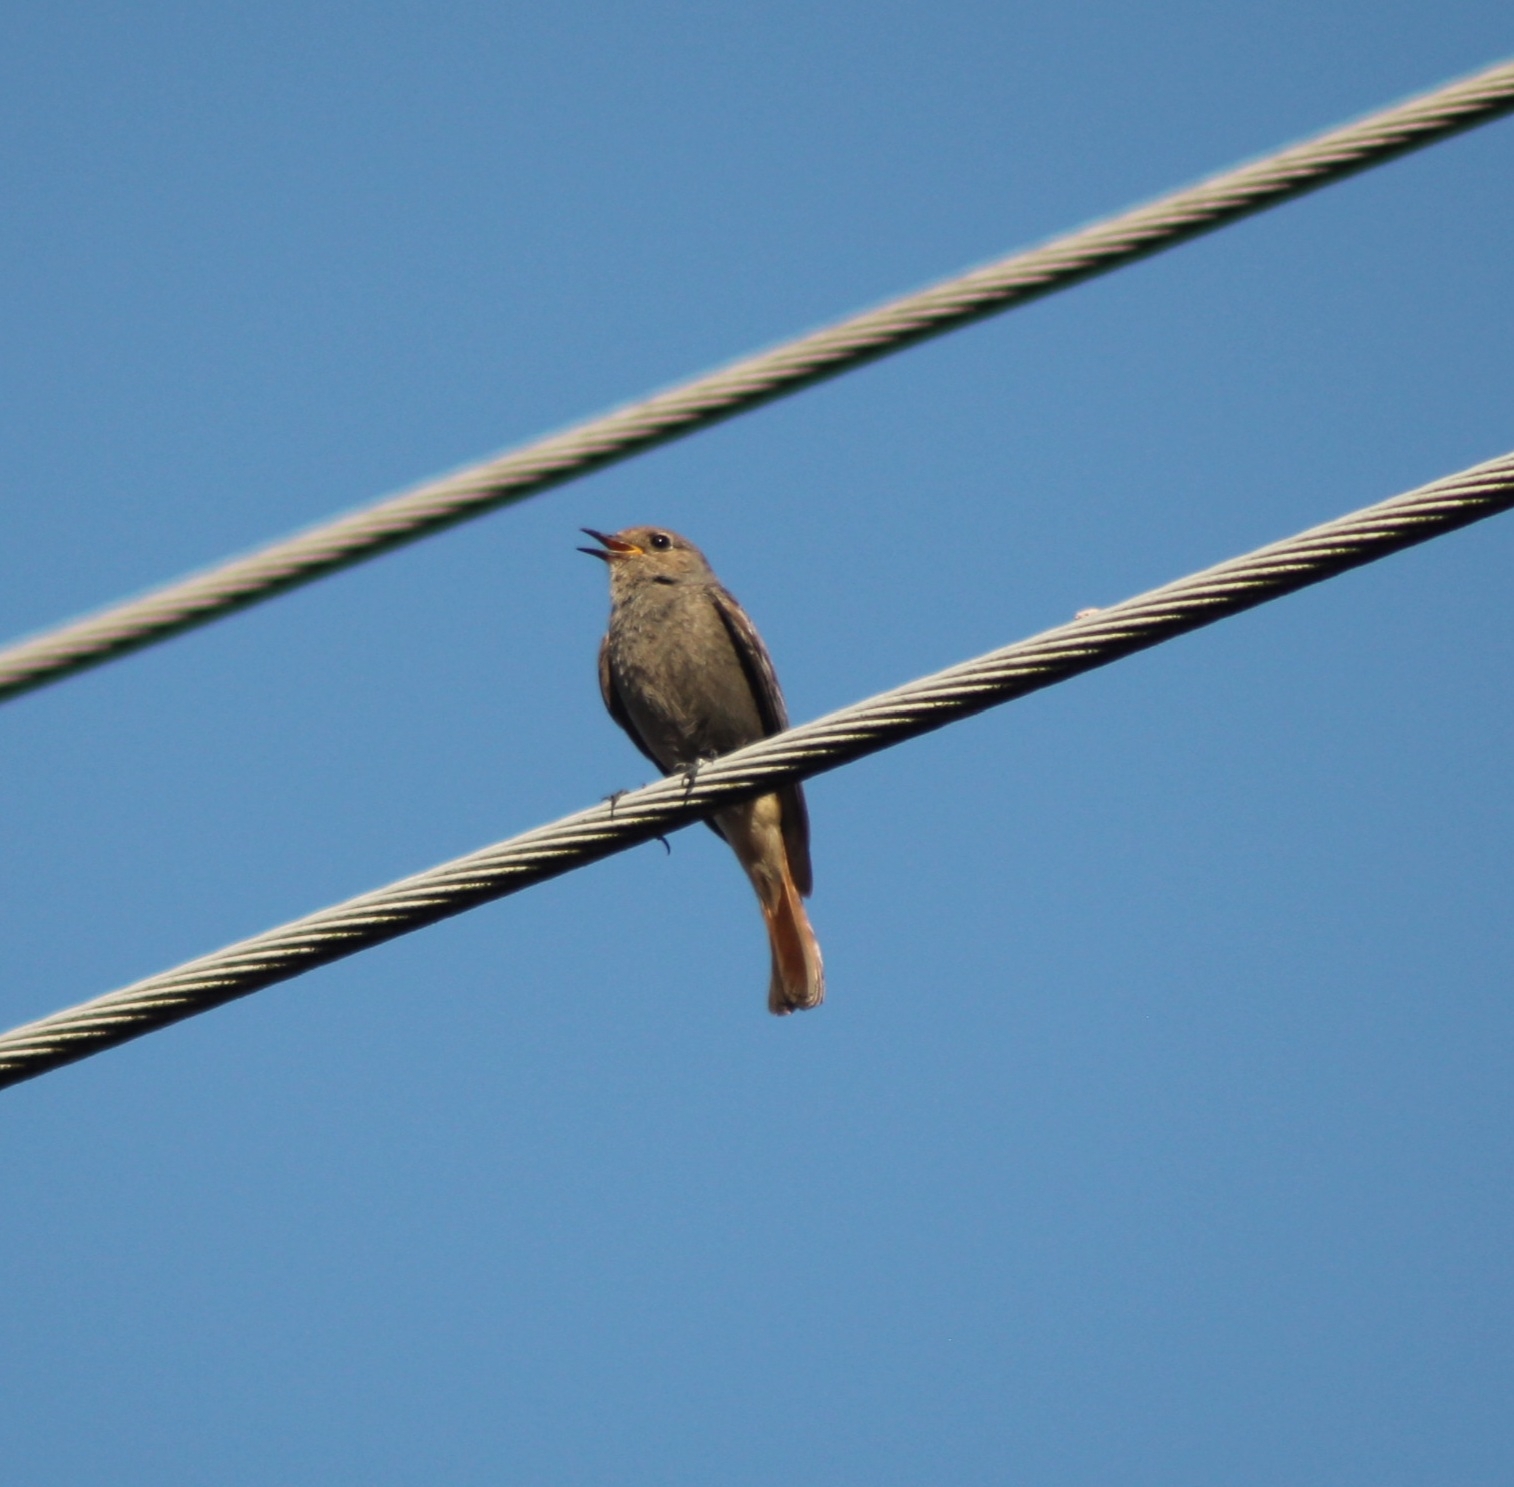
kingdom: Animalia
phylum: Chordata
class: Aves
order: Passeriformes
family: Muscicapidae
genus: Phoenicurus
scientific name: Phoenicurus ochruros
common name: Black redstart
